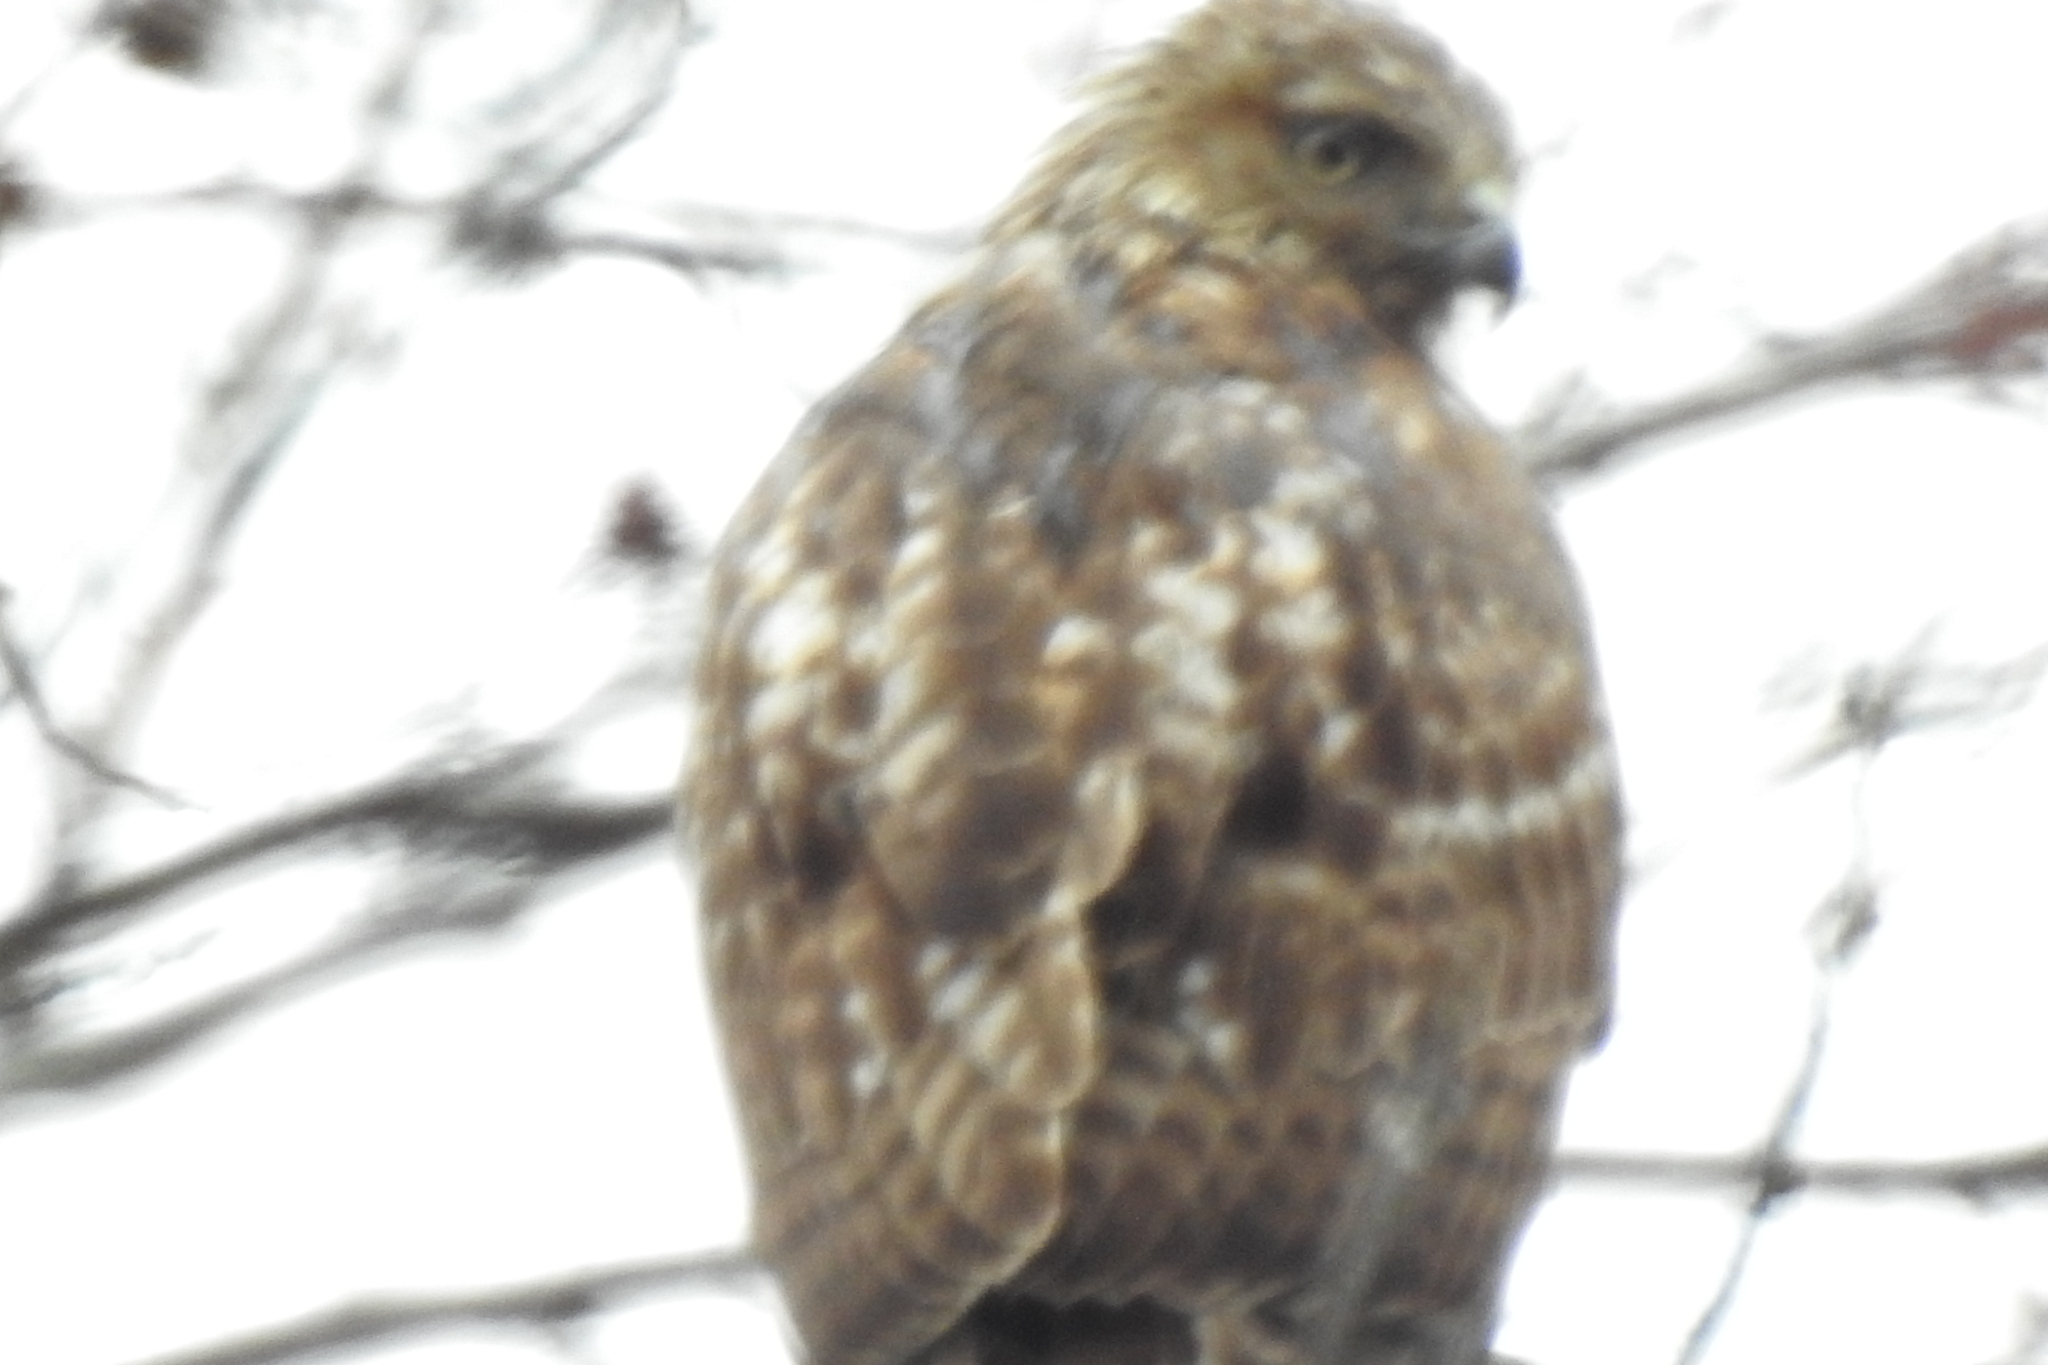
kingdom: Animalia
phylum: Chordata
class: Aves
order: Accipitriformes
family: Accipitridae
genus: Buteo
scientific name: Buteo jamaicensis
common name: Red-tailed hawk
